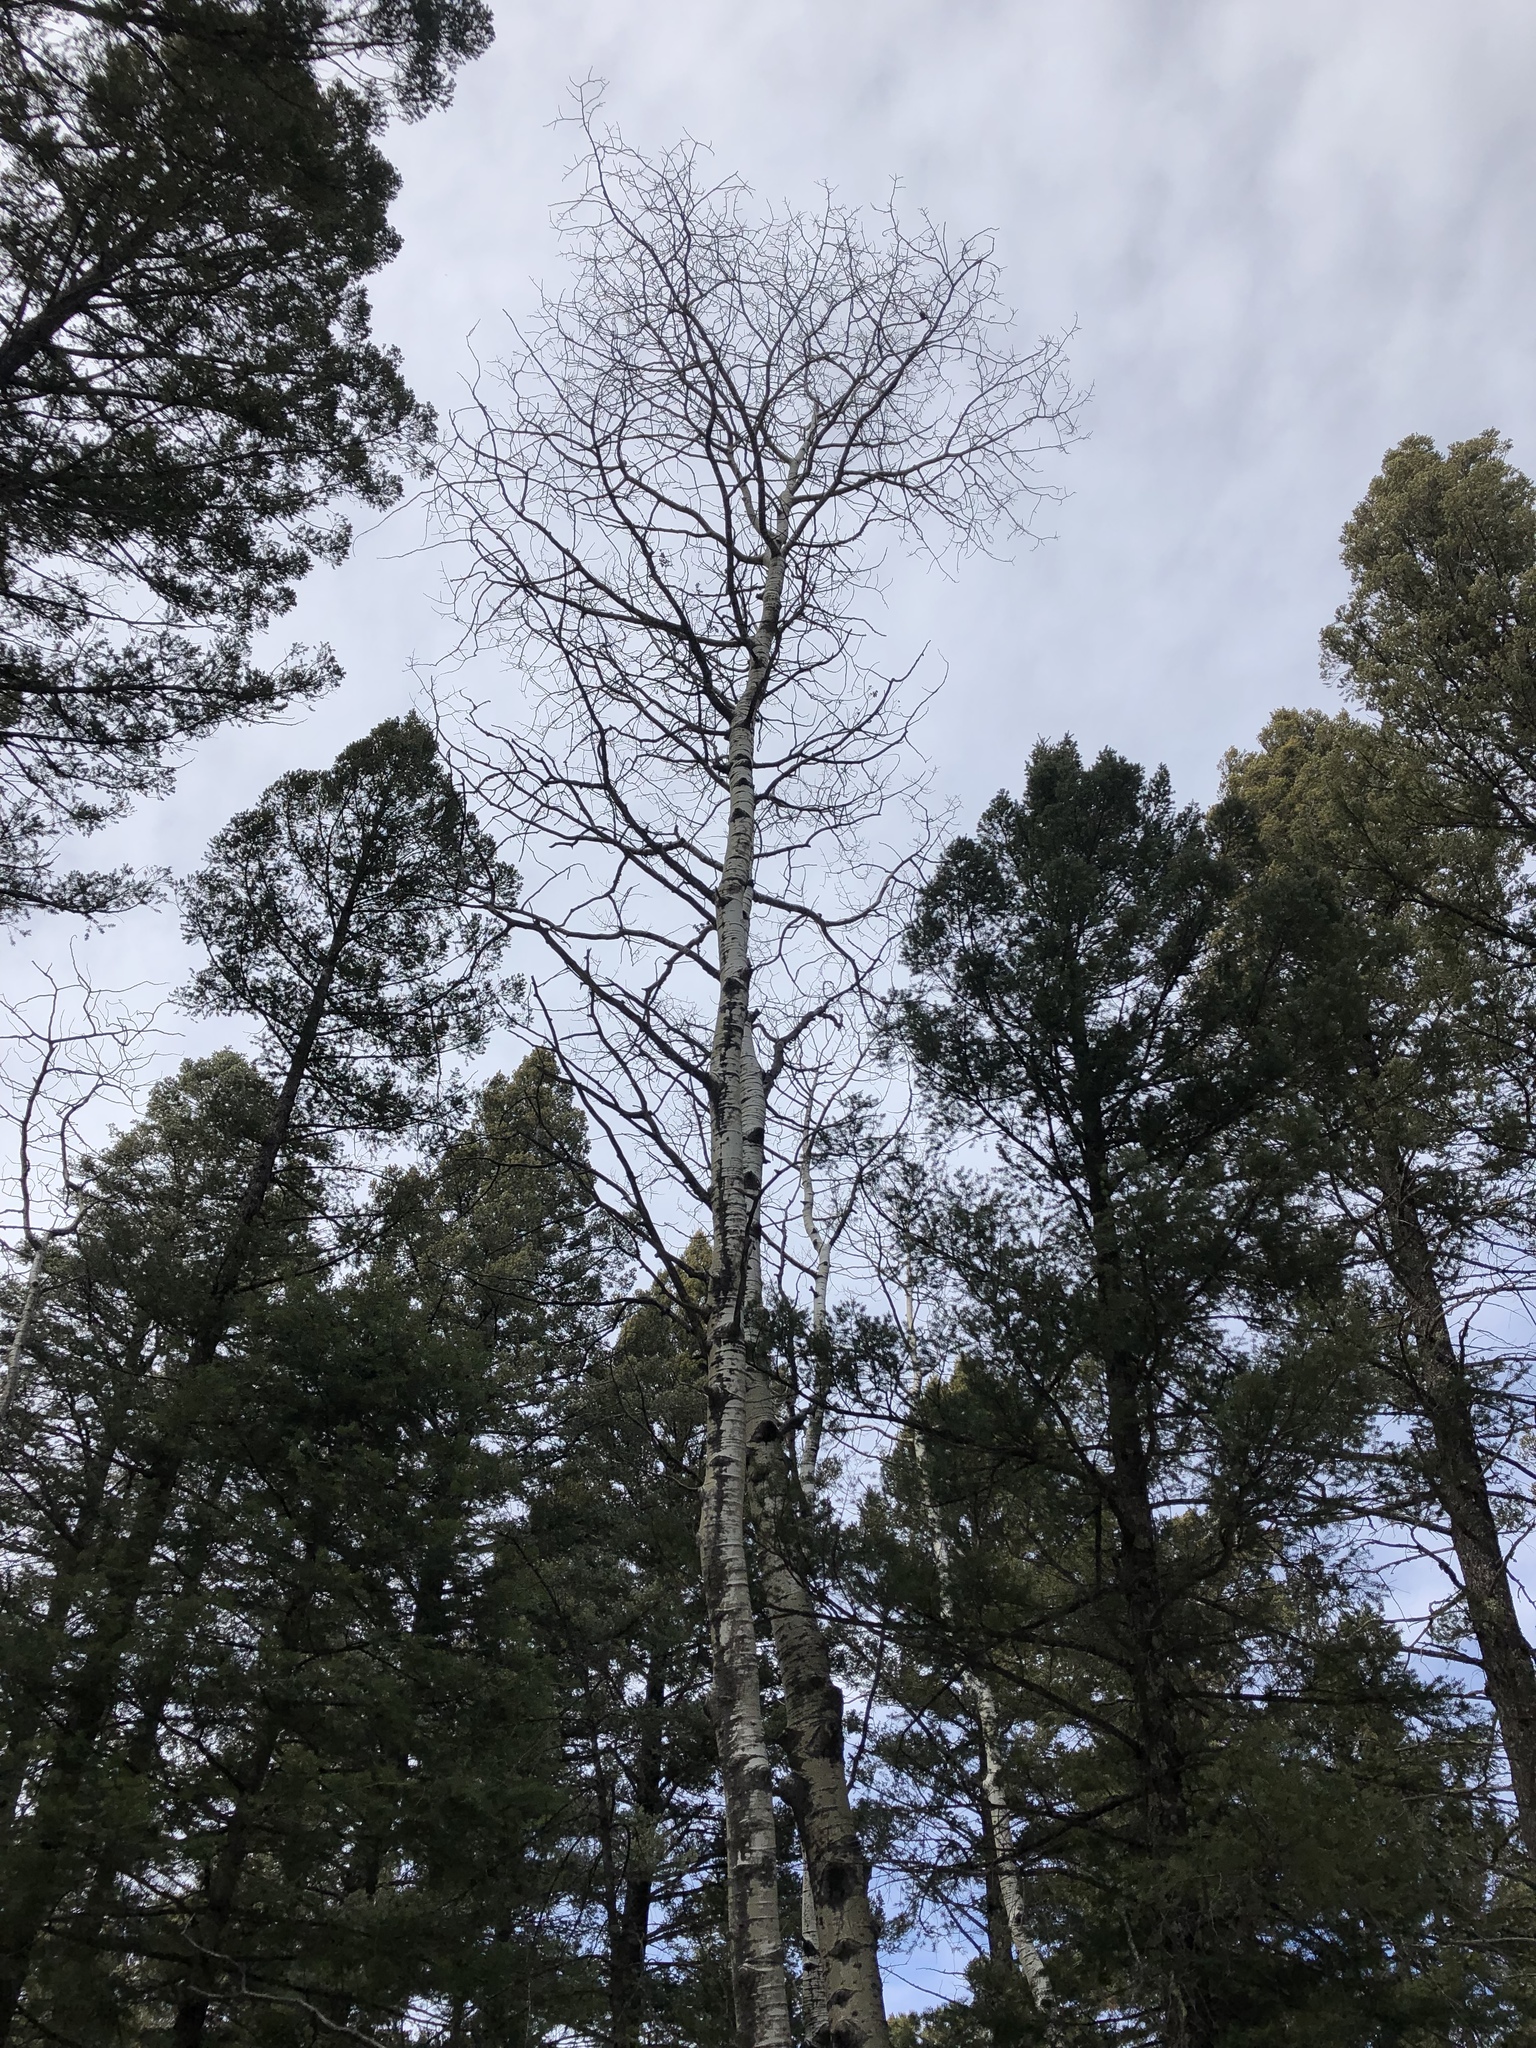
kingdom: Plantae
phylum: Tracheophyta
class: Magnoliopsida
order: Malpighiales
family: Salicaceae
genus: Populus
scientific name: Populus tremuloides
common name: Quaking aspen
